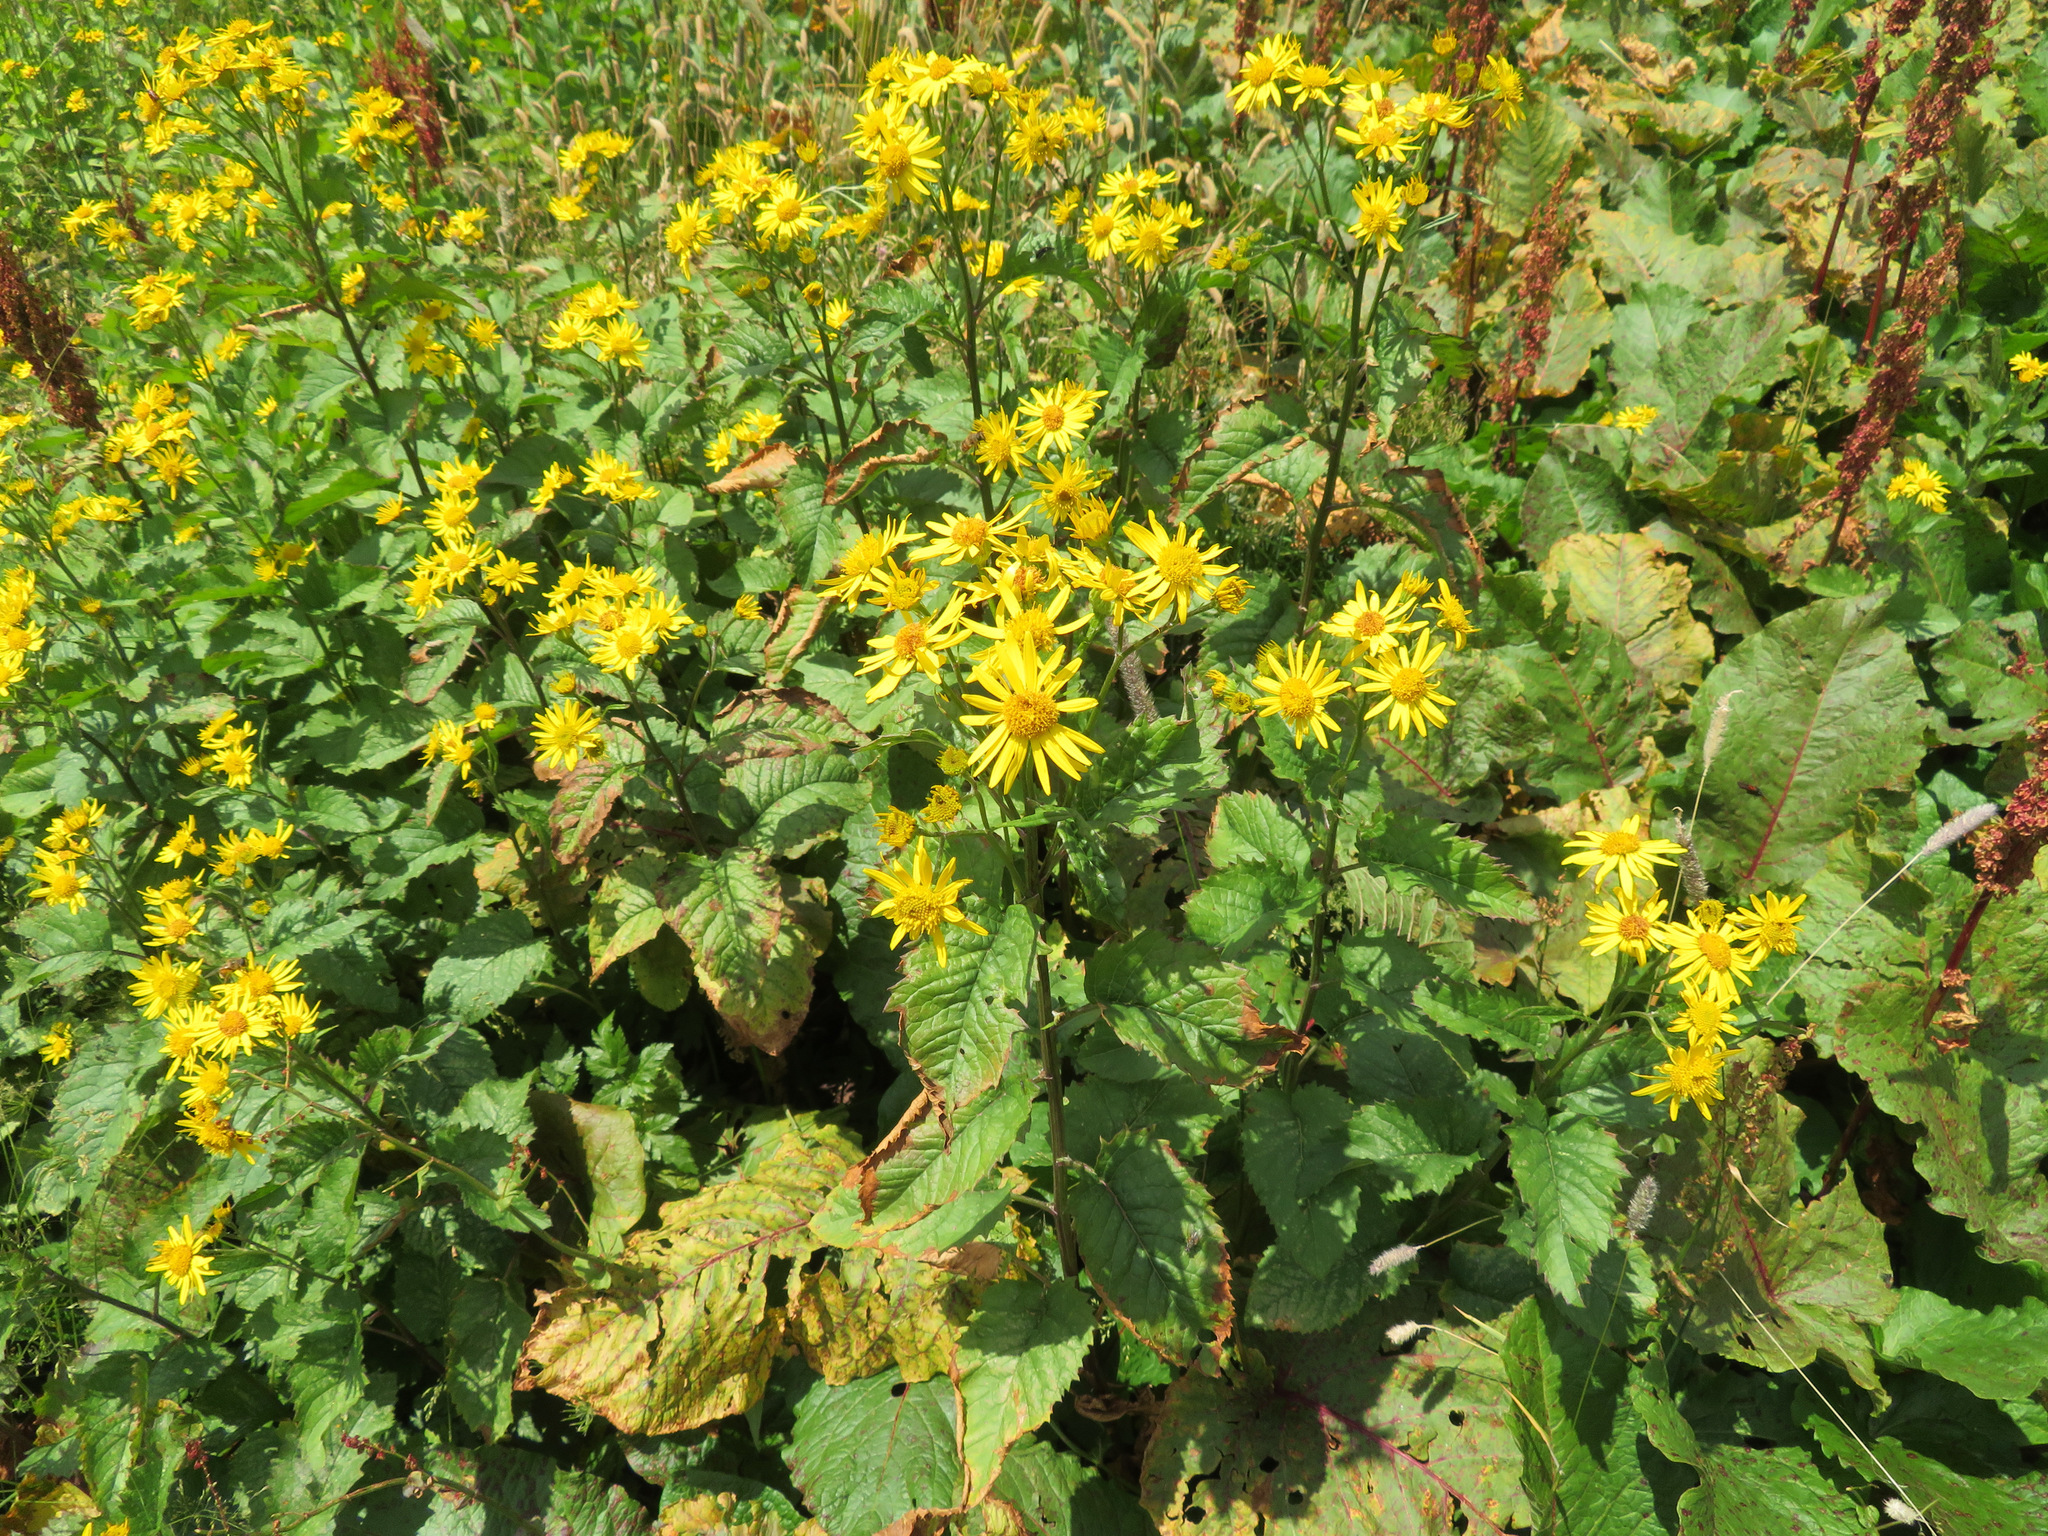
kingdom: Plantae
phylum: Tracheophyta
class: Magnoliopsida
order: Asterales
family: Asteraceae
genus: Jacobaea
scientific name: Jacobaea alpina
